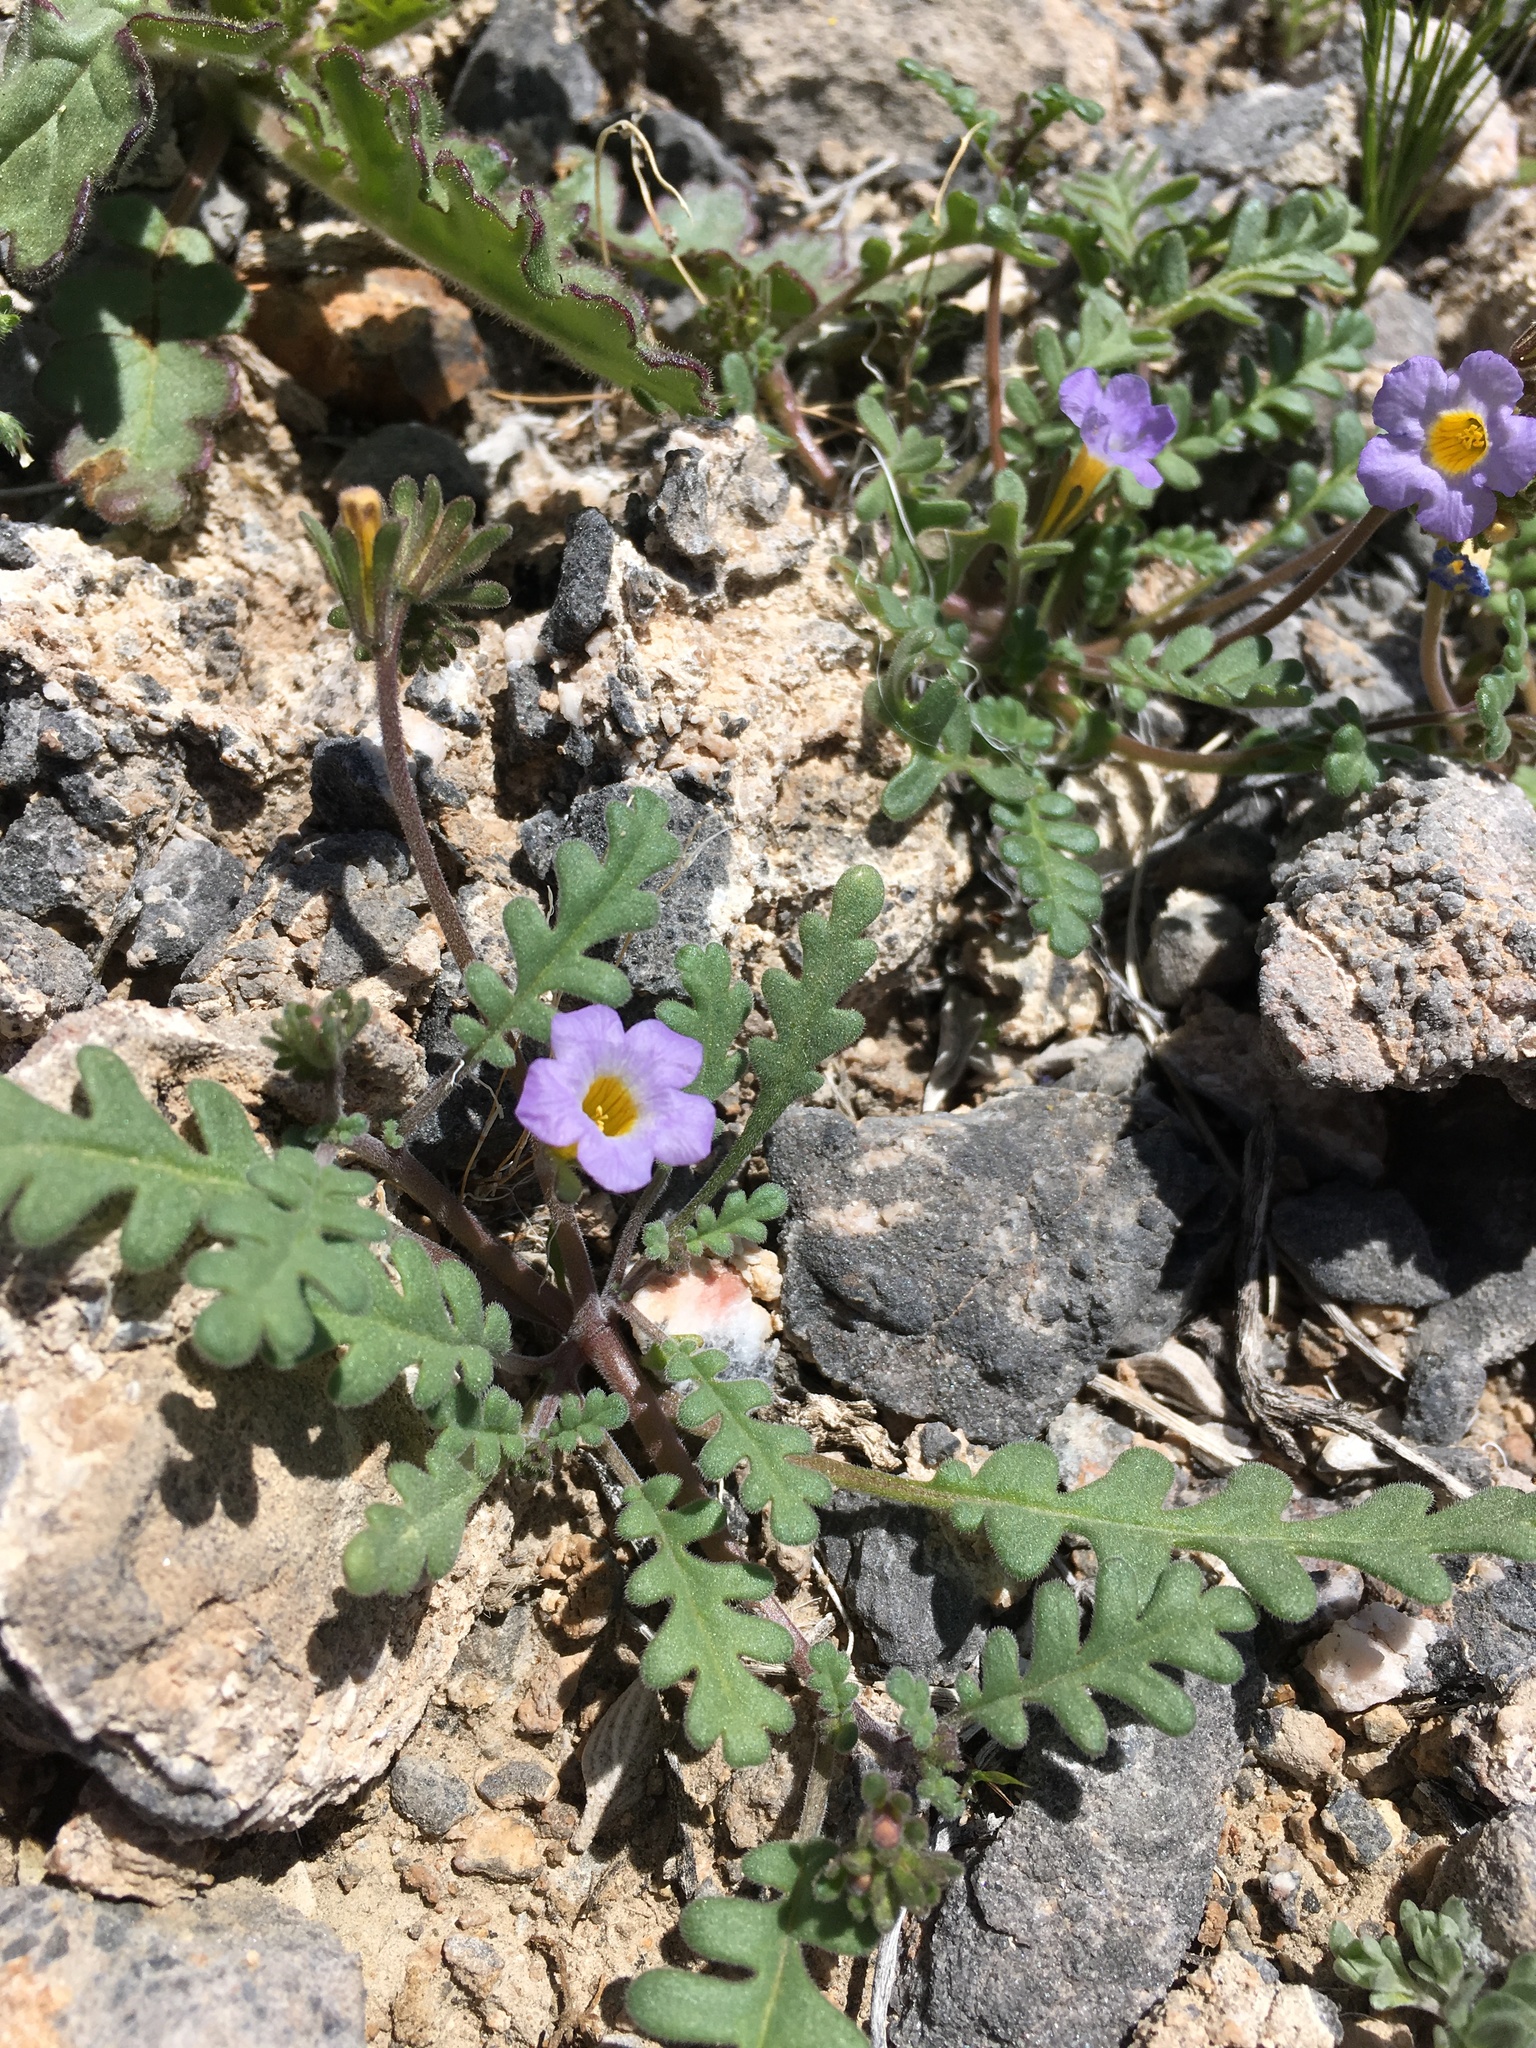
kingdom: Plantae
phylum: Tracheophyta
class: Magnoliopsida
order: Boraginales
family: Hydrophyllaceae
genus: Phacelia
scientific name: Phacelia fremontii
